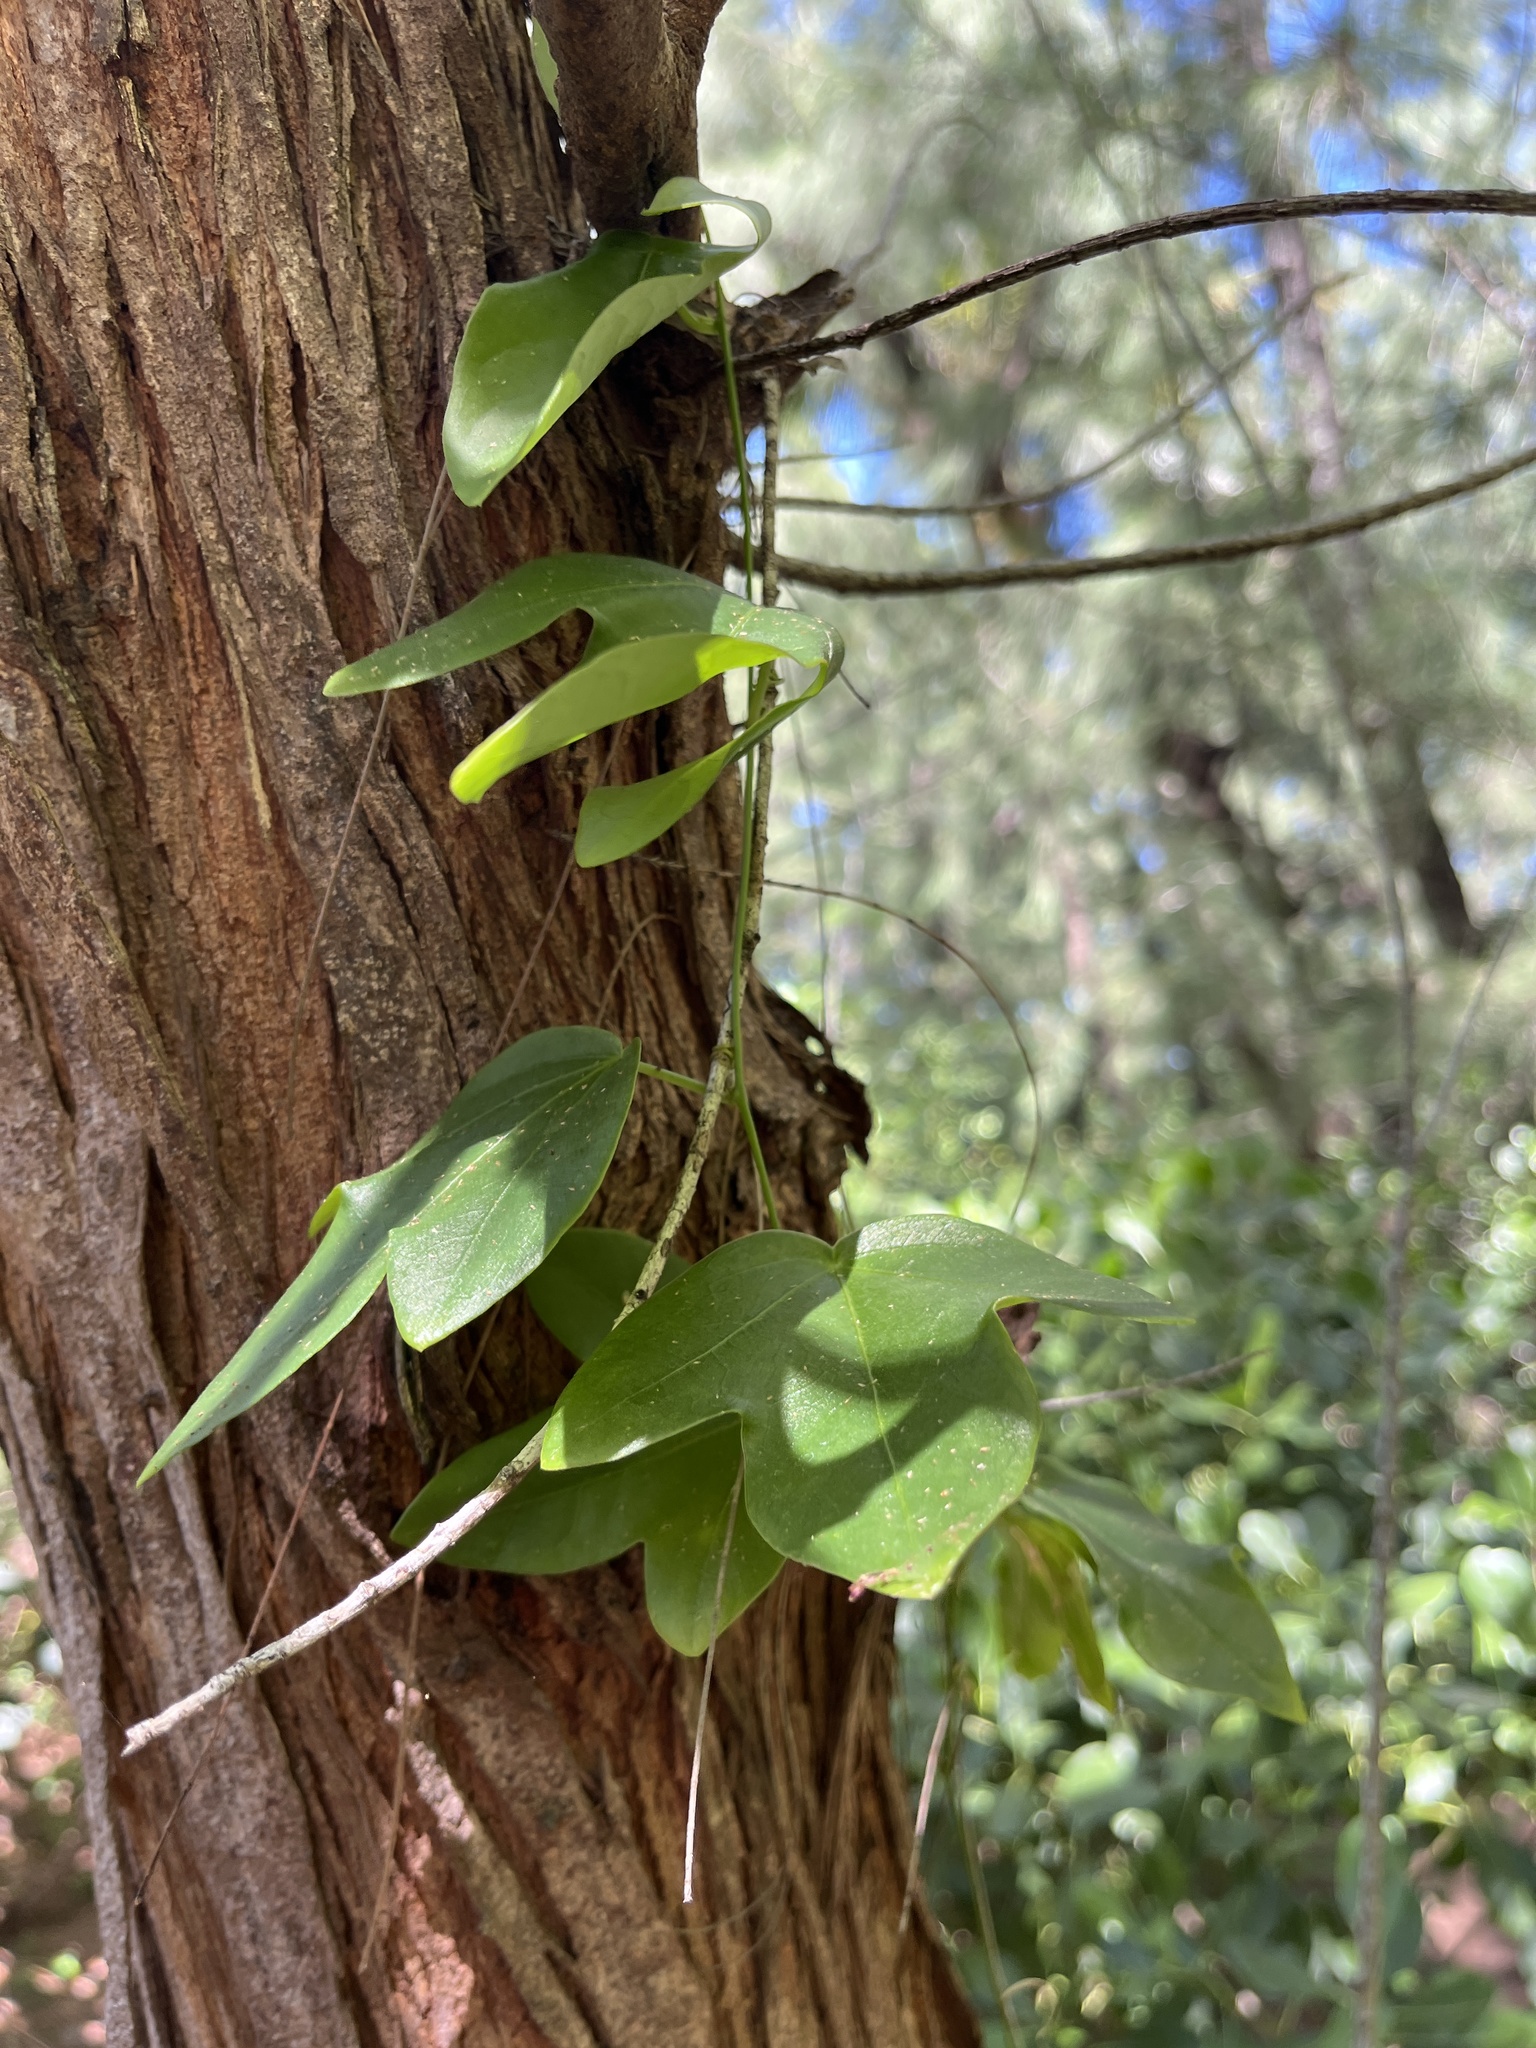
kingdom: Plantae
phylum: Tracheophyta
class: Magnoliopsida
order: Malpighiales
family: Passifloraceae
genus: Passiflora
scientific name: Passiflora suberosa
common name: Wild passionfruit
